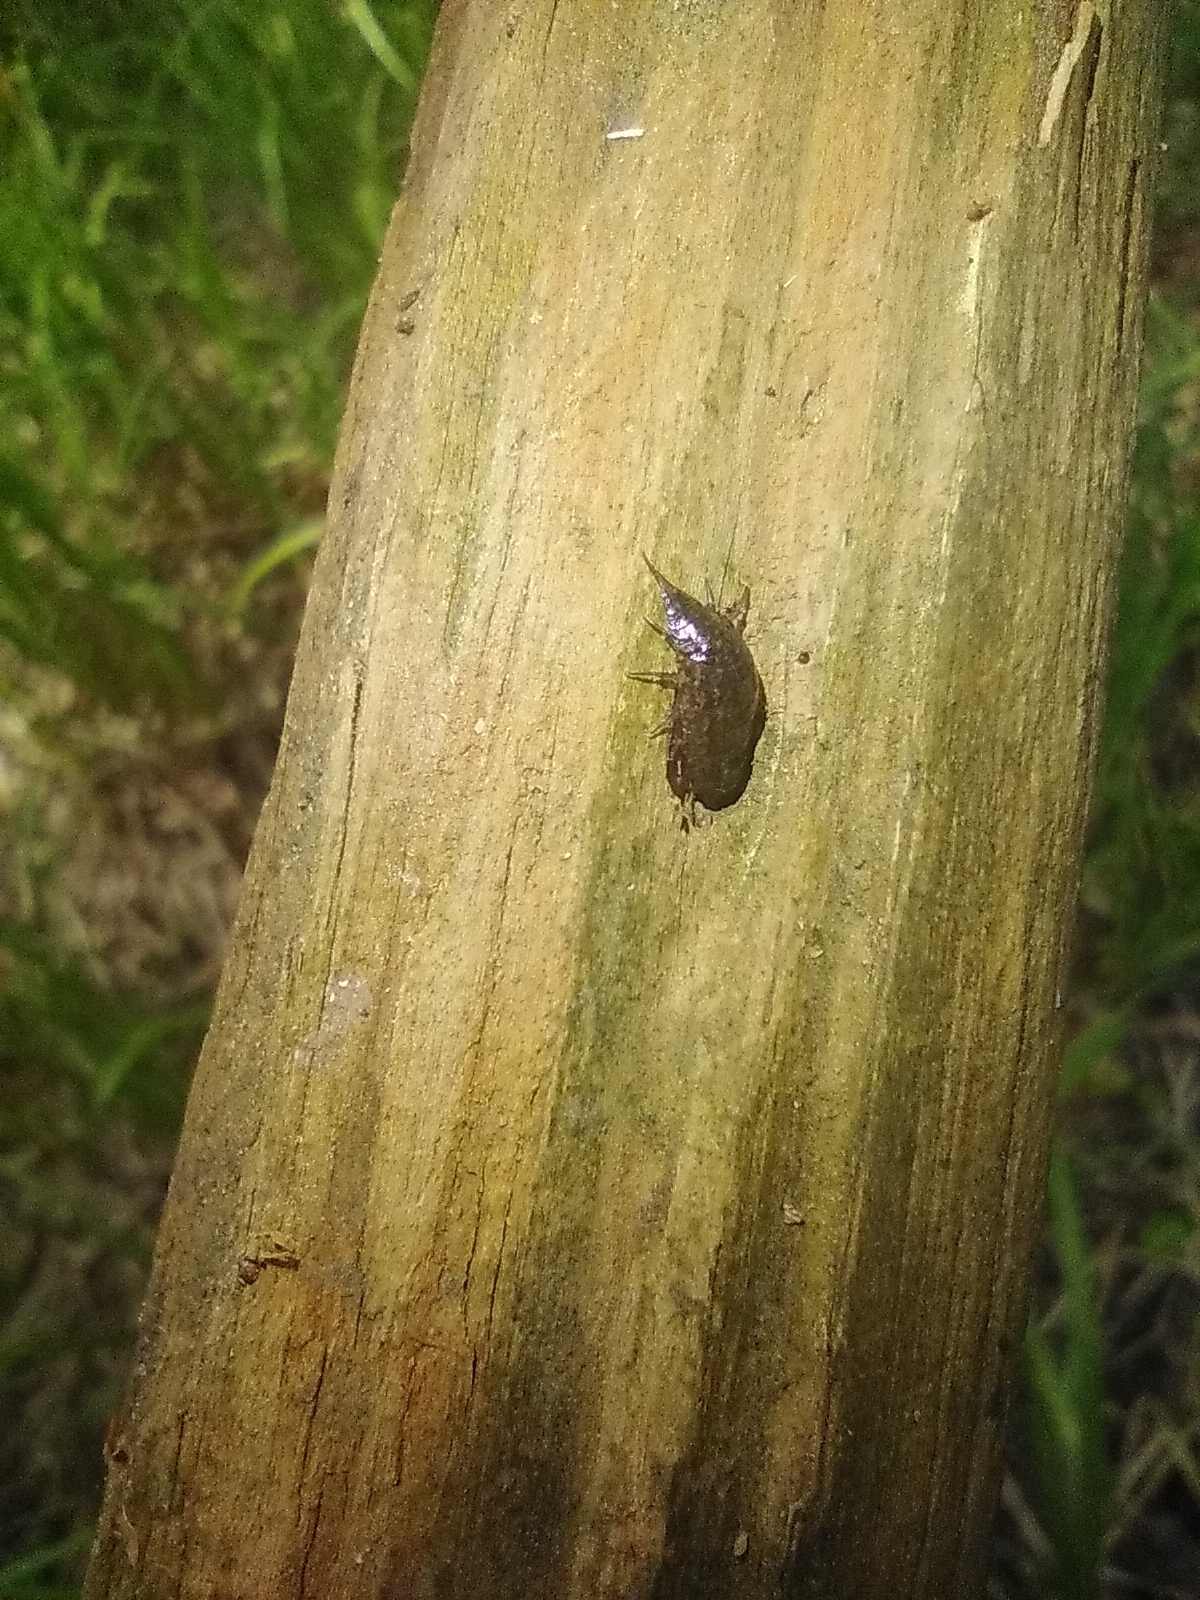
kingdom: Animalia
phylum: Arthropoda
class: Malacostraca
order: Isopoda
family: Ligiidae
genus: Ligidium
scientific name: Ligidium elrodii
